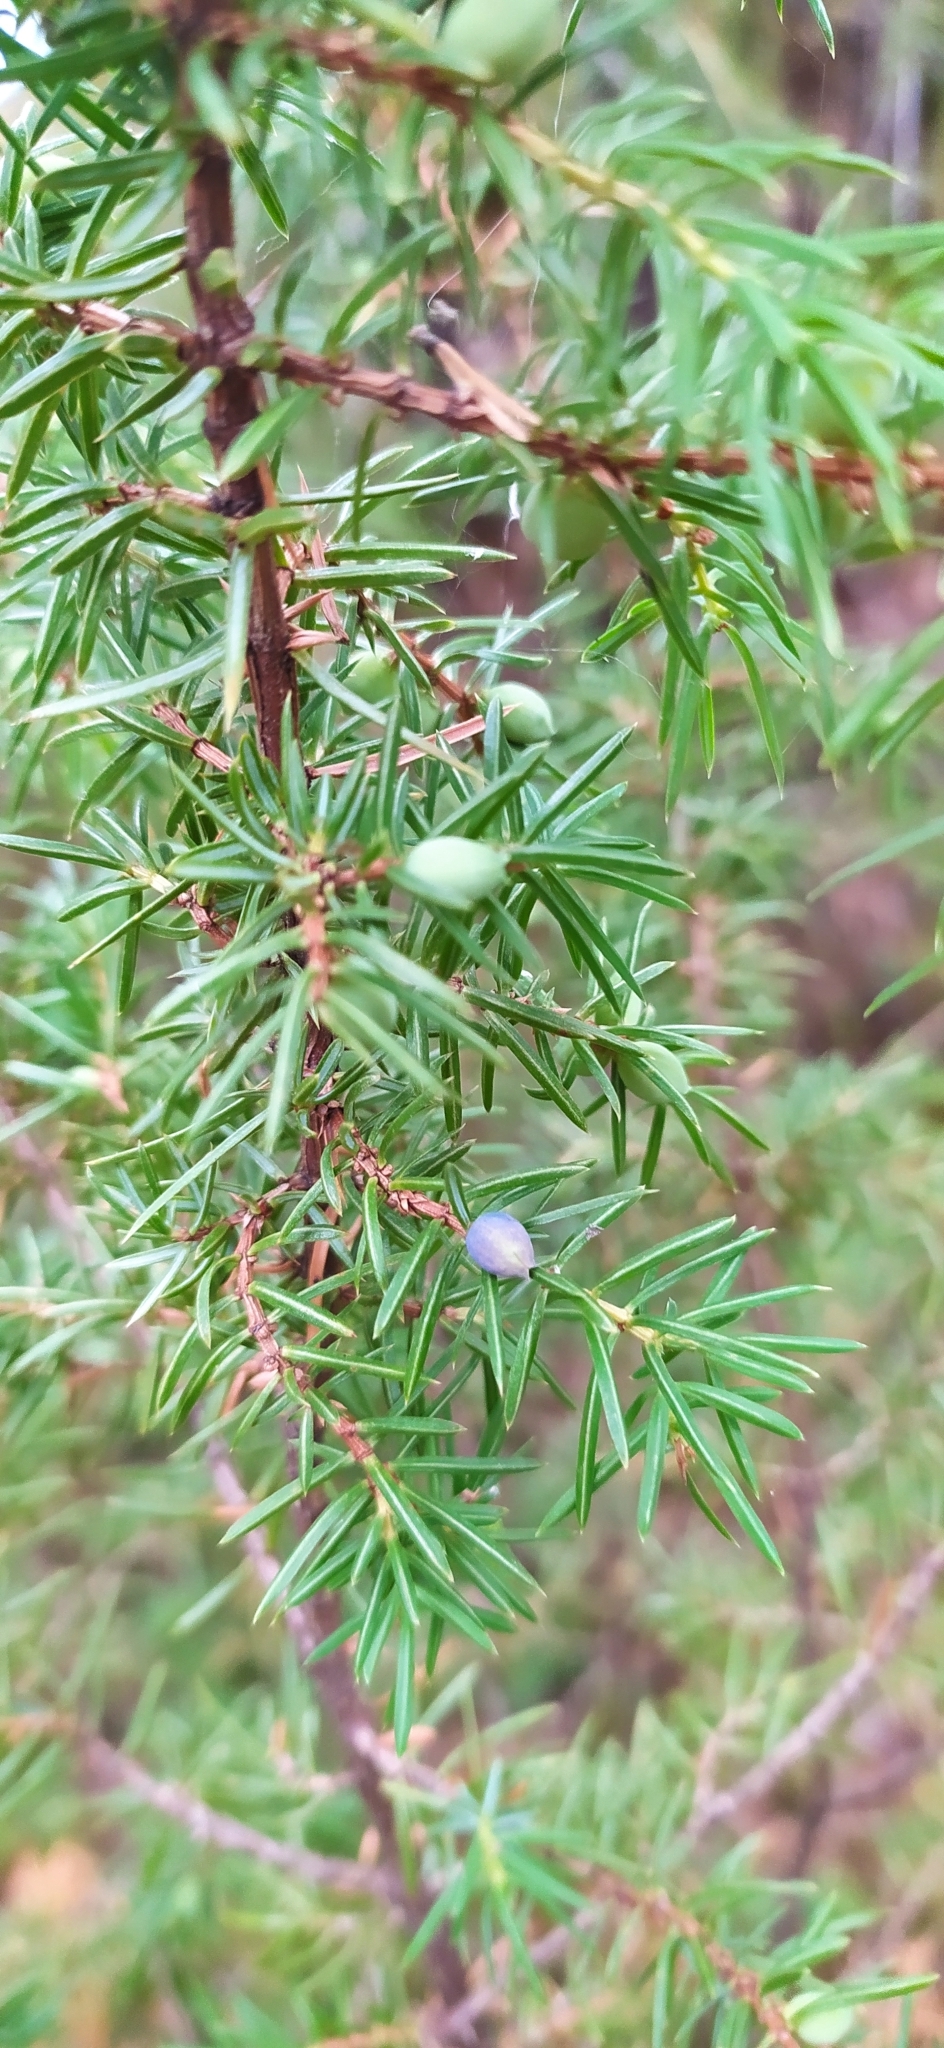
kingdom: Plantae
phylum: Tracheophyta
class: Pinopsida
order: Pinales
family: Cupressaceae
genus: Juniperus
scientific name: Juniperus communis
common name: Common juniper
